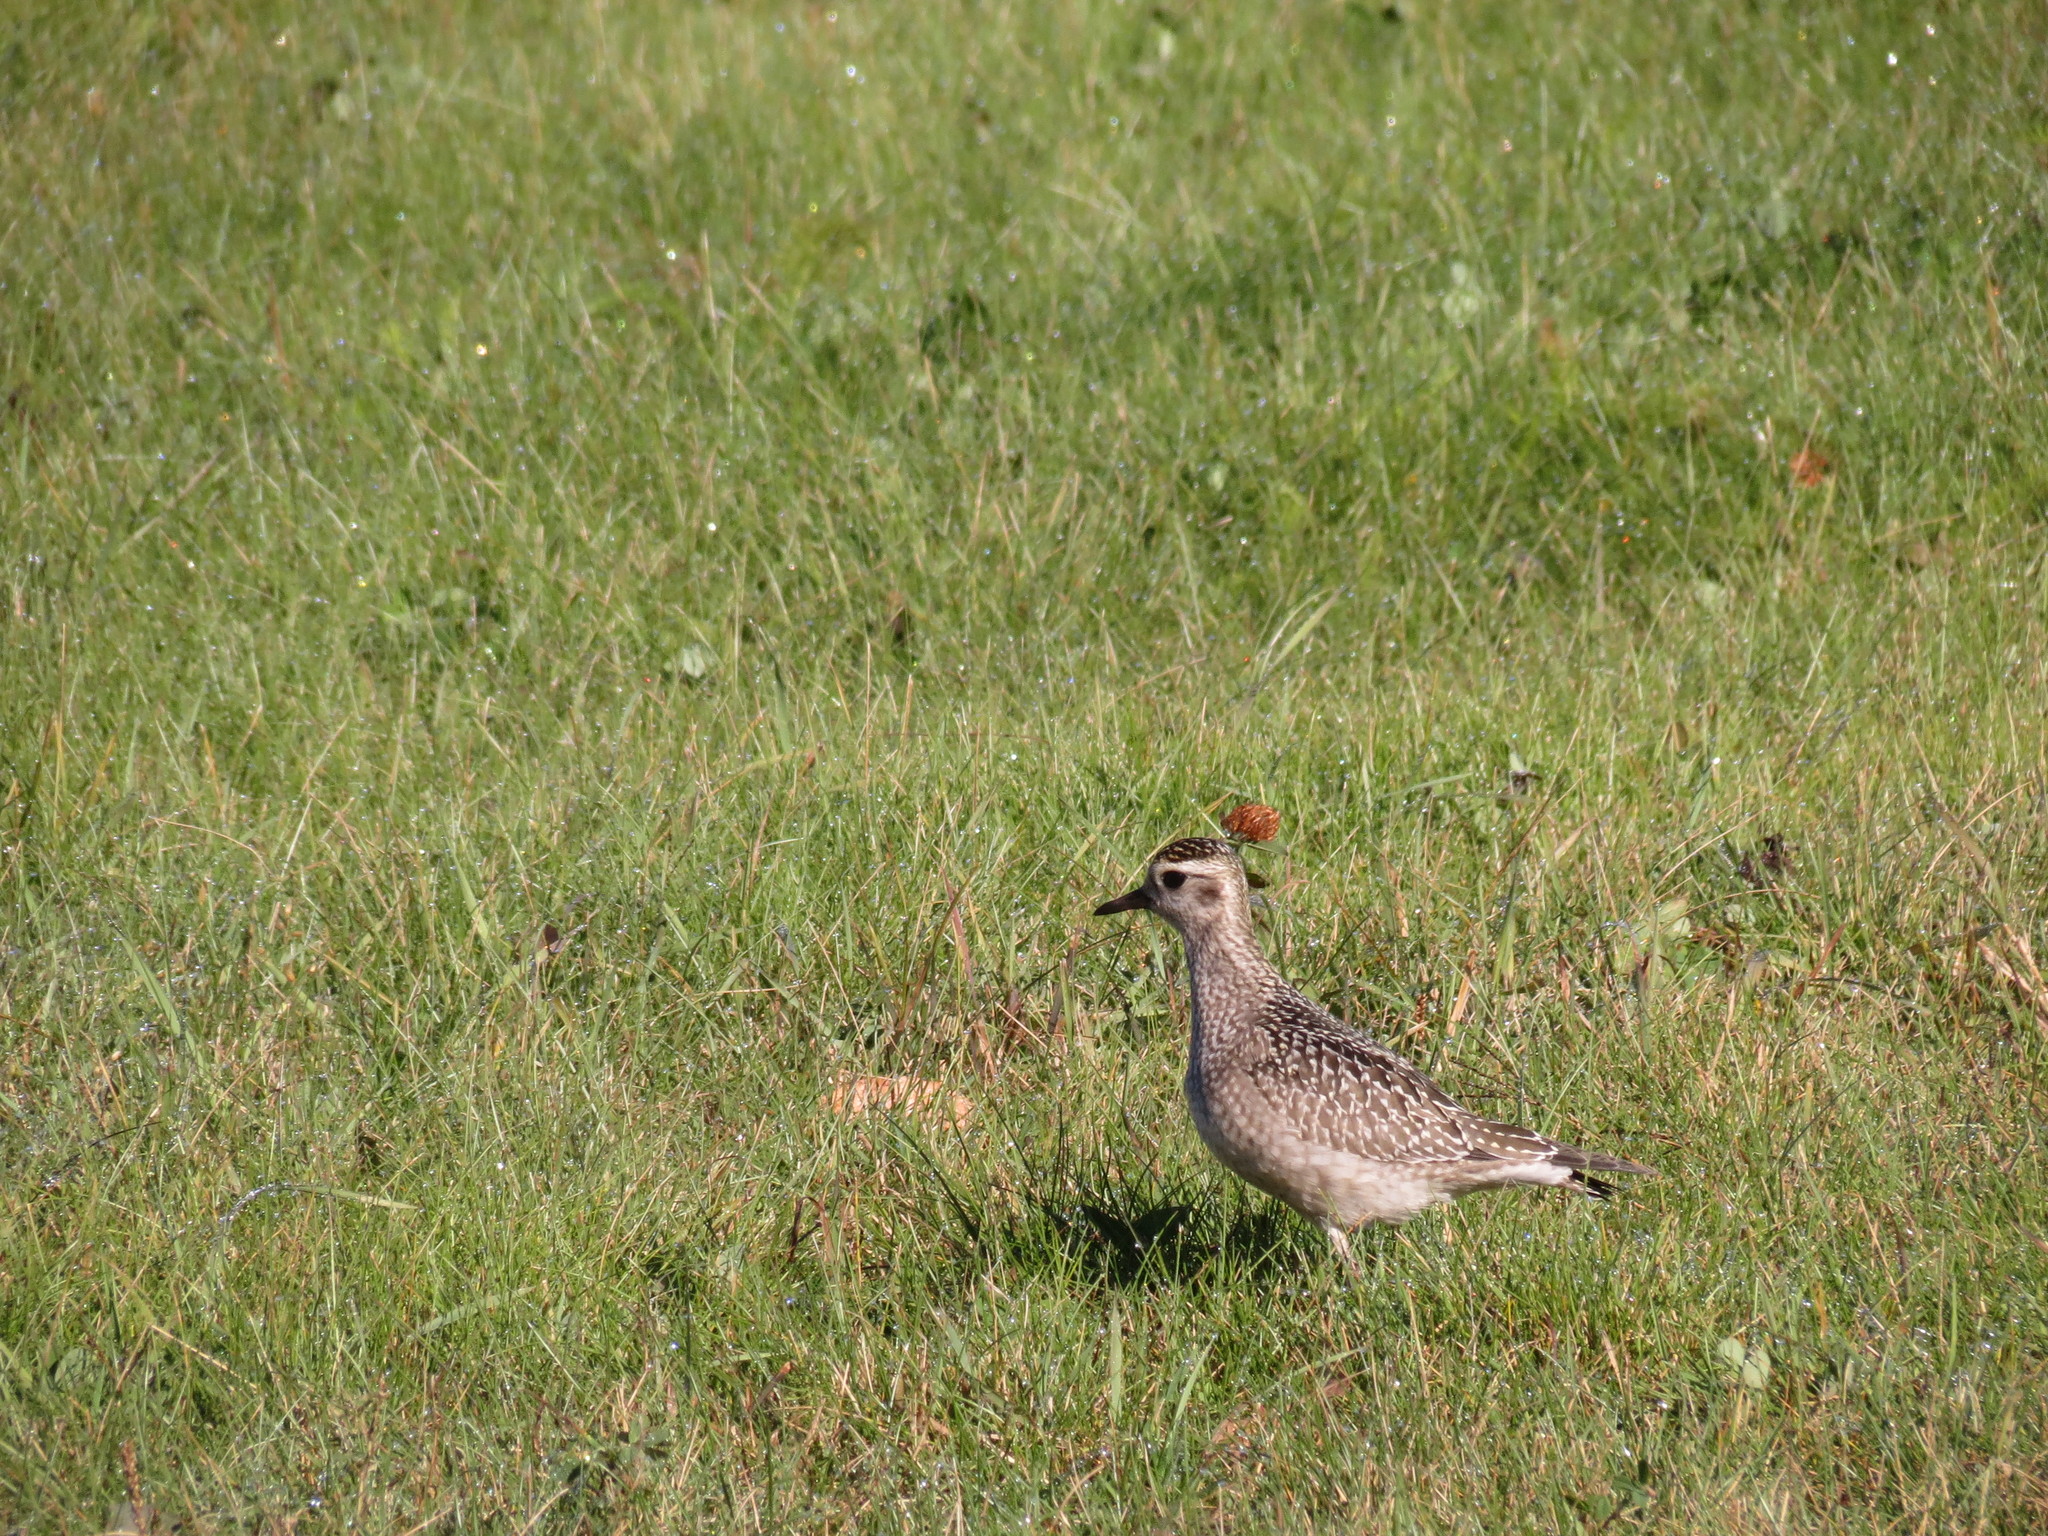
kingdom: Animalia
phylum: Chordata
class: Aves
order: Charadriiformes
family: Charadriidae
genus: Pluvialis
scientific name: Pluvialis dominica
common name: American golden plover
